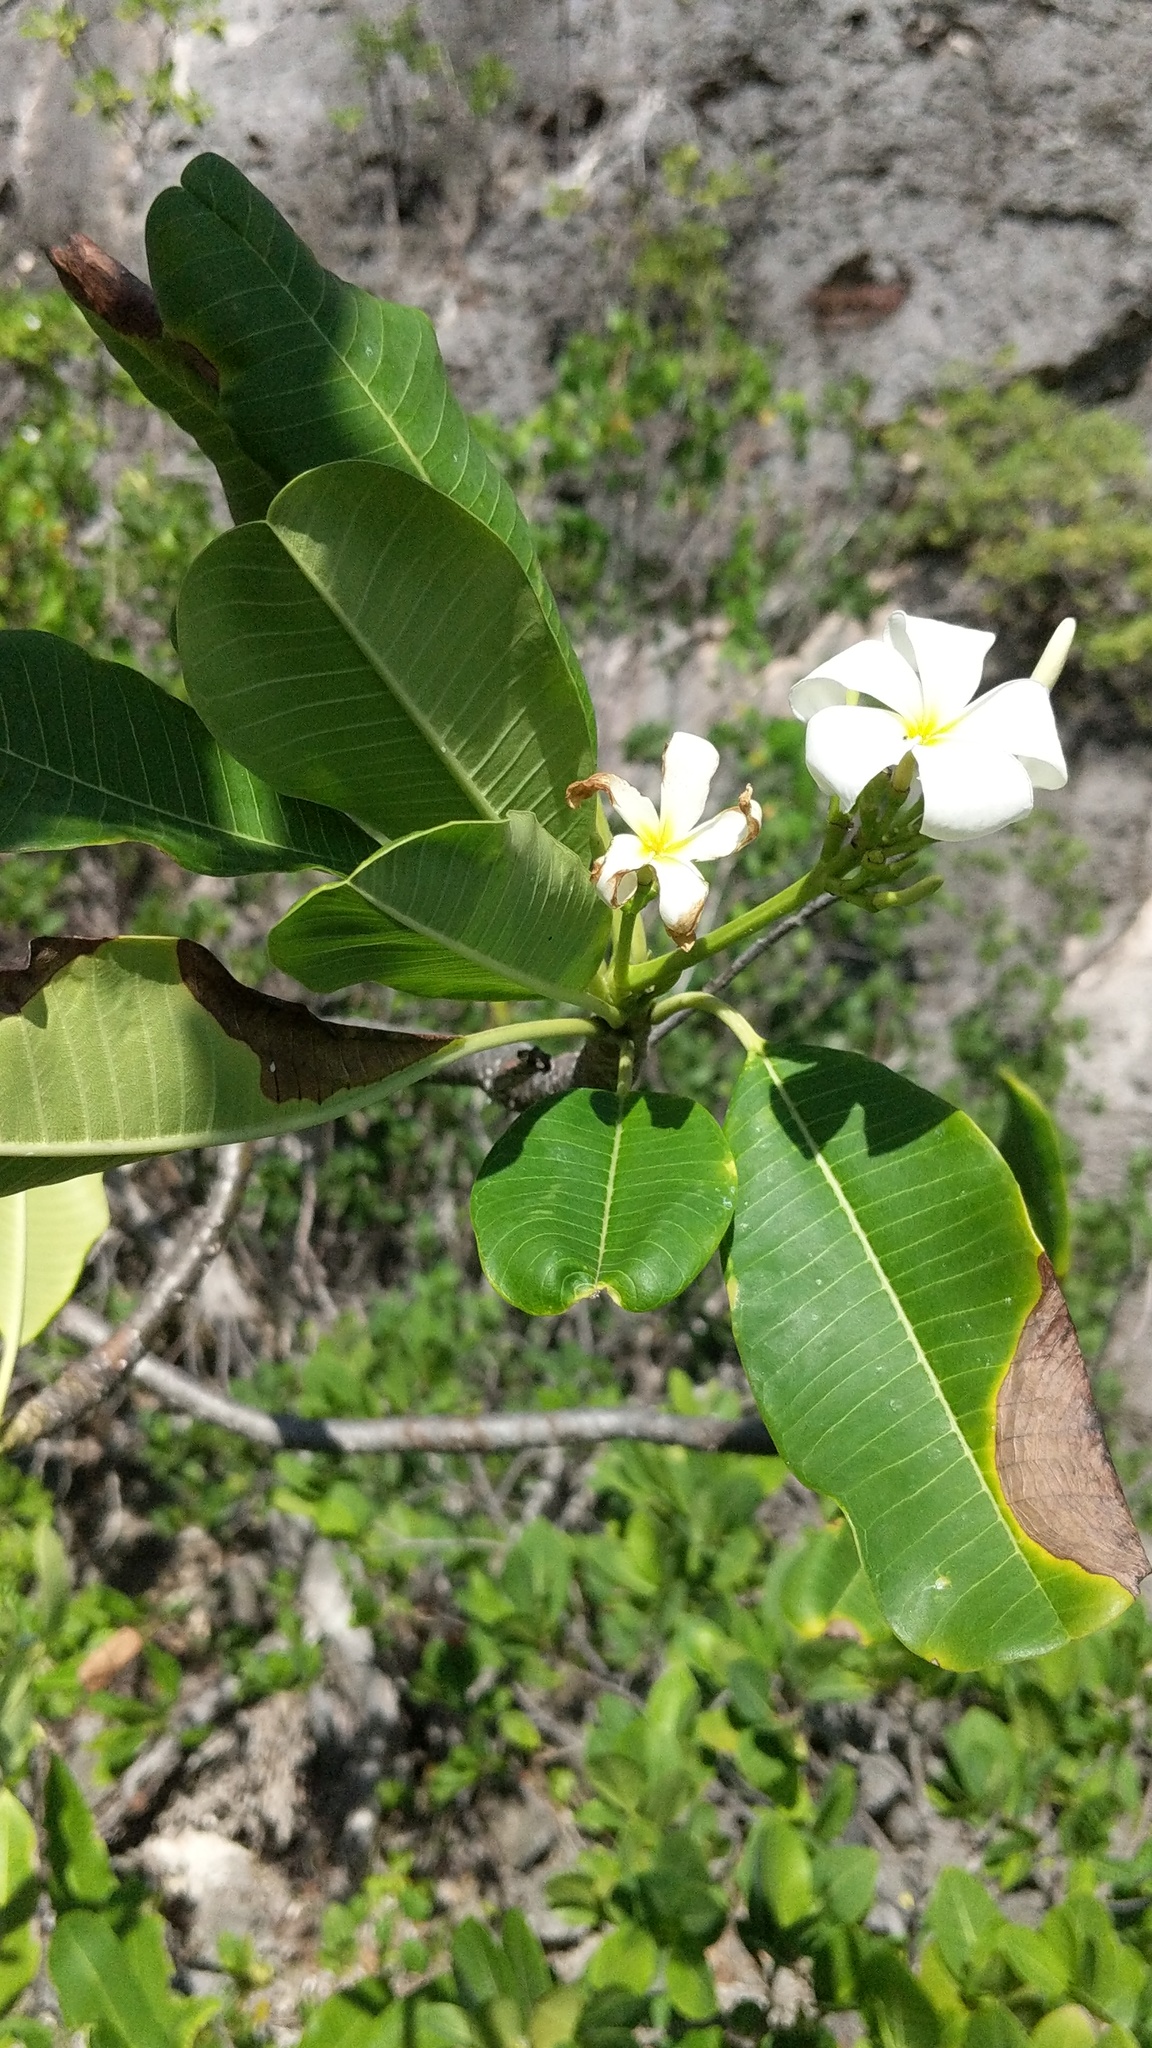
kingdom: Plantae
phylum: Tracheophyta
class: Magnoliopsida
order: Gentianales
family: Apocynaceae
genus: Plumeria
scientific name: Plumeria obtusa
